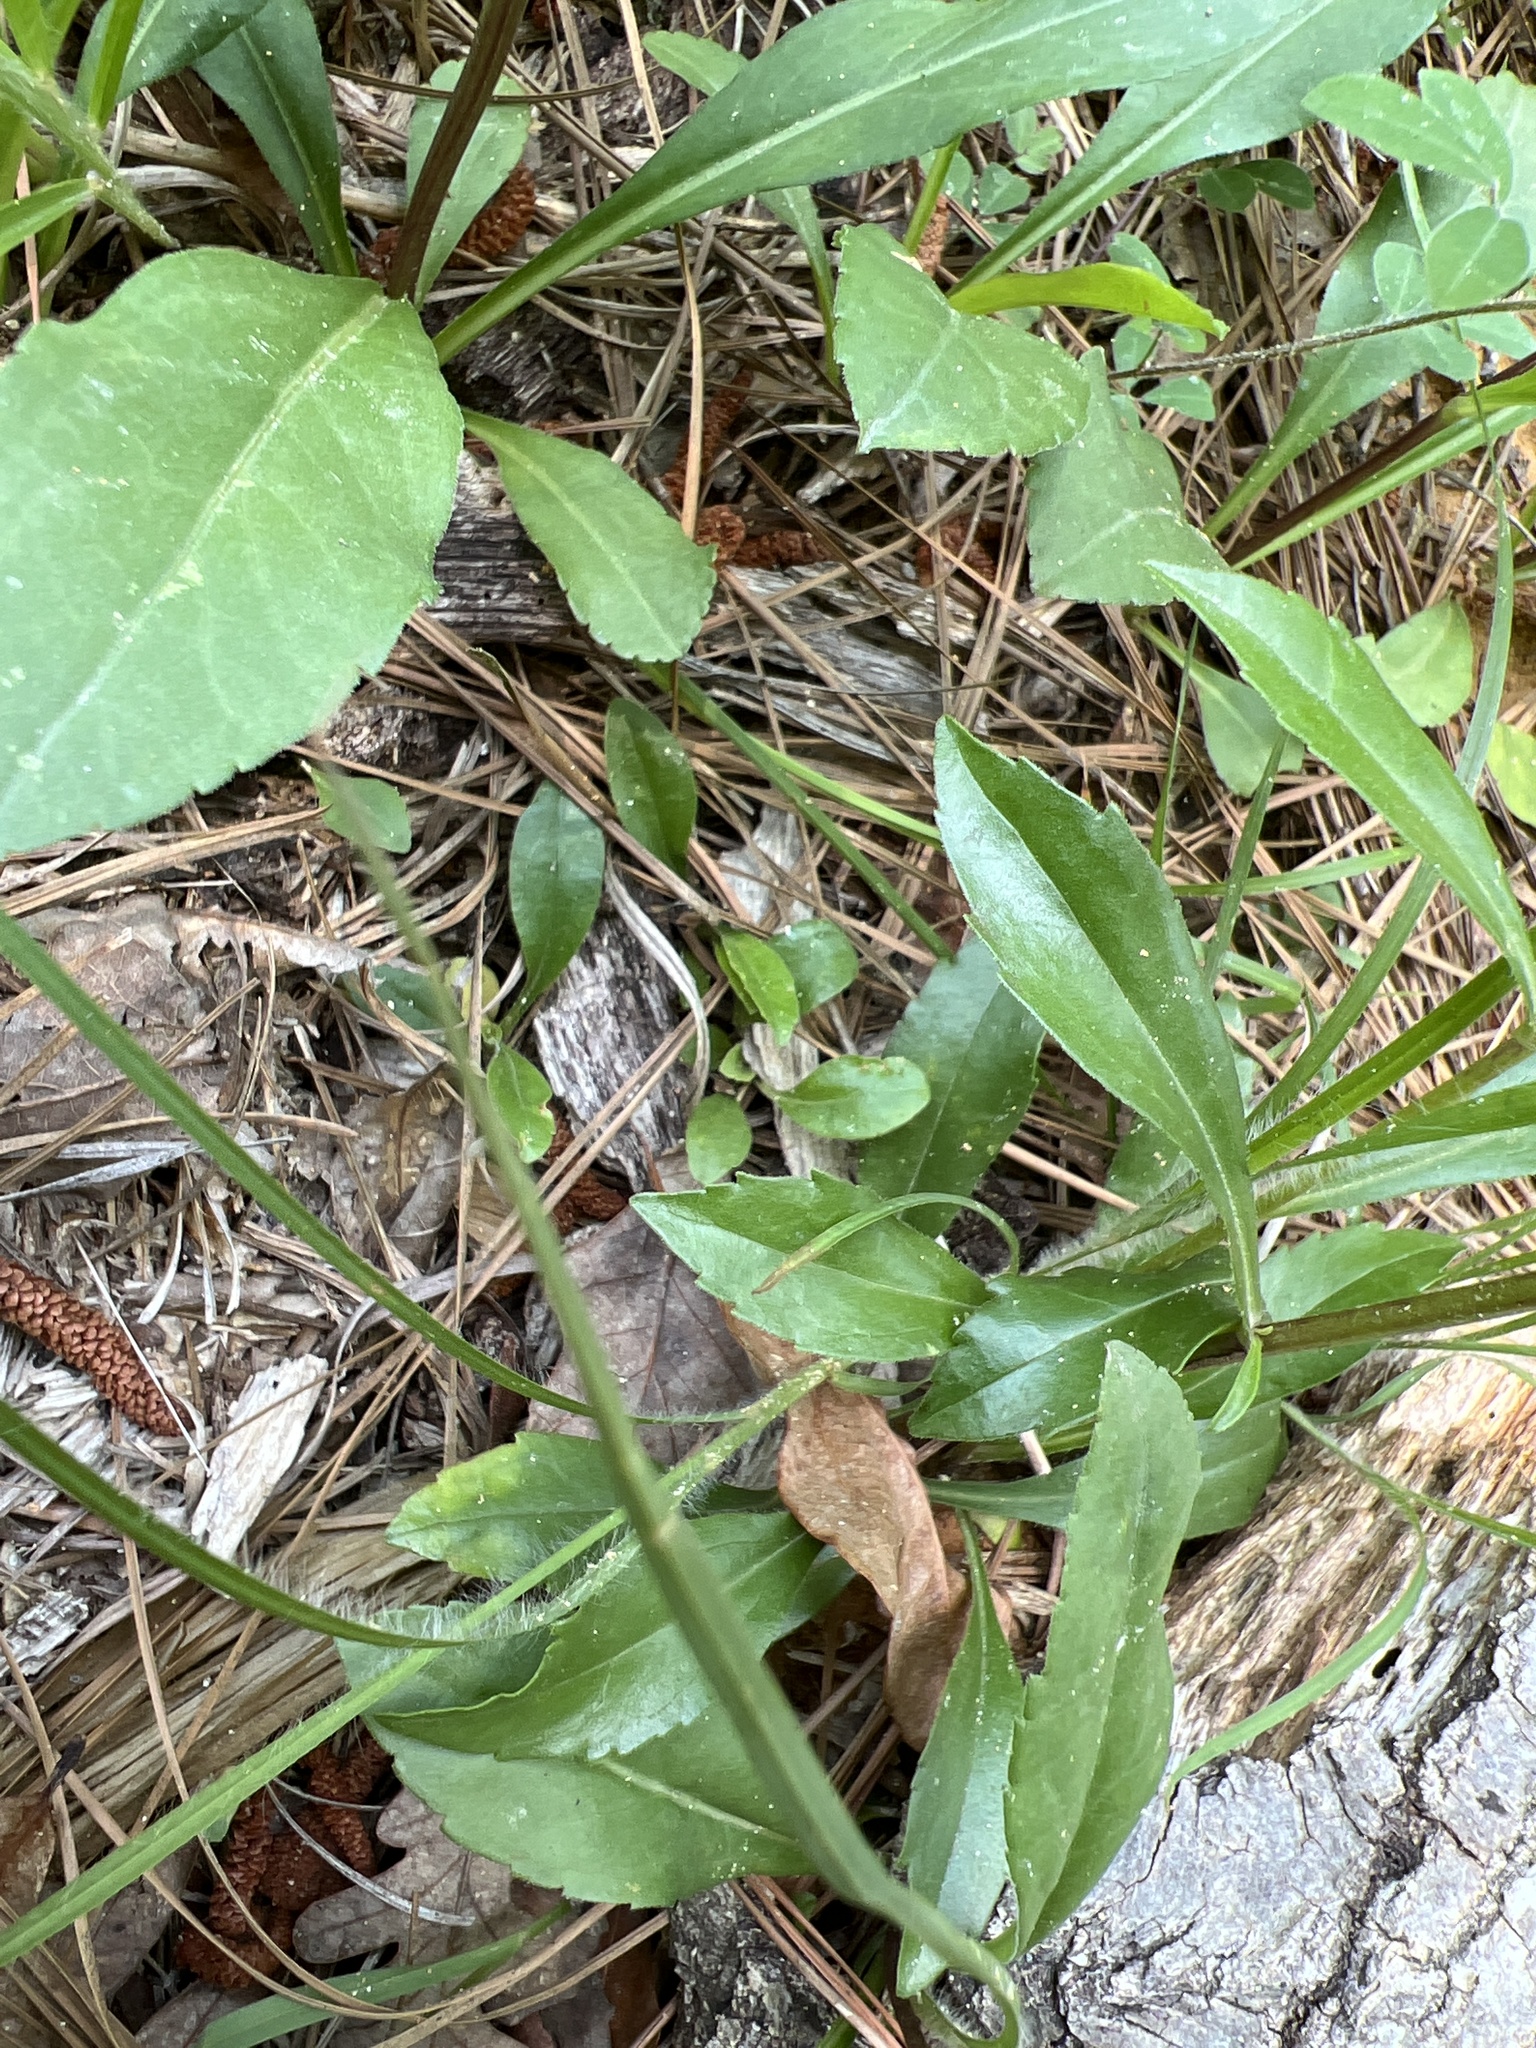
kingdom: Plantae
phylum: Tracheophyta
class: Magnoliopsida
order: Asterales
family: Asteraceae
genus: Sericocarpus
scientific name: Sericocarpus asteroides
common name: Toothed white-top aster
